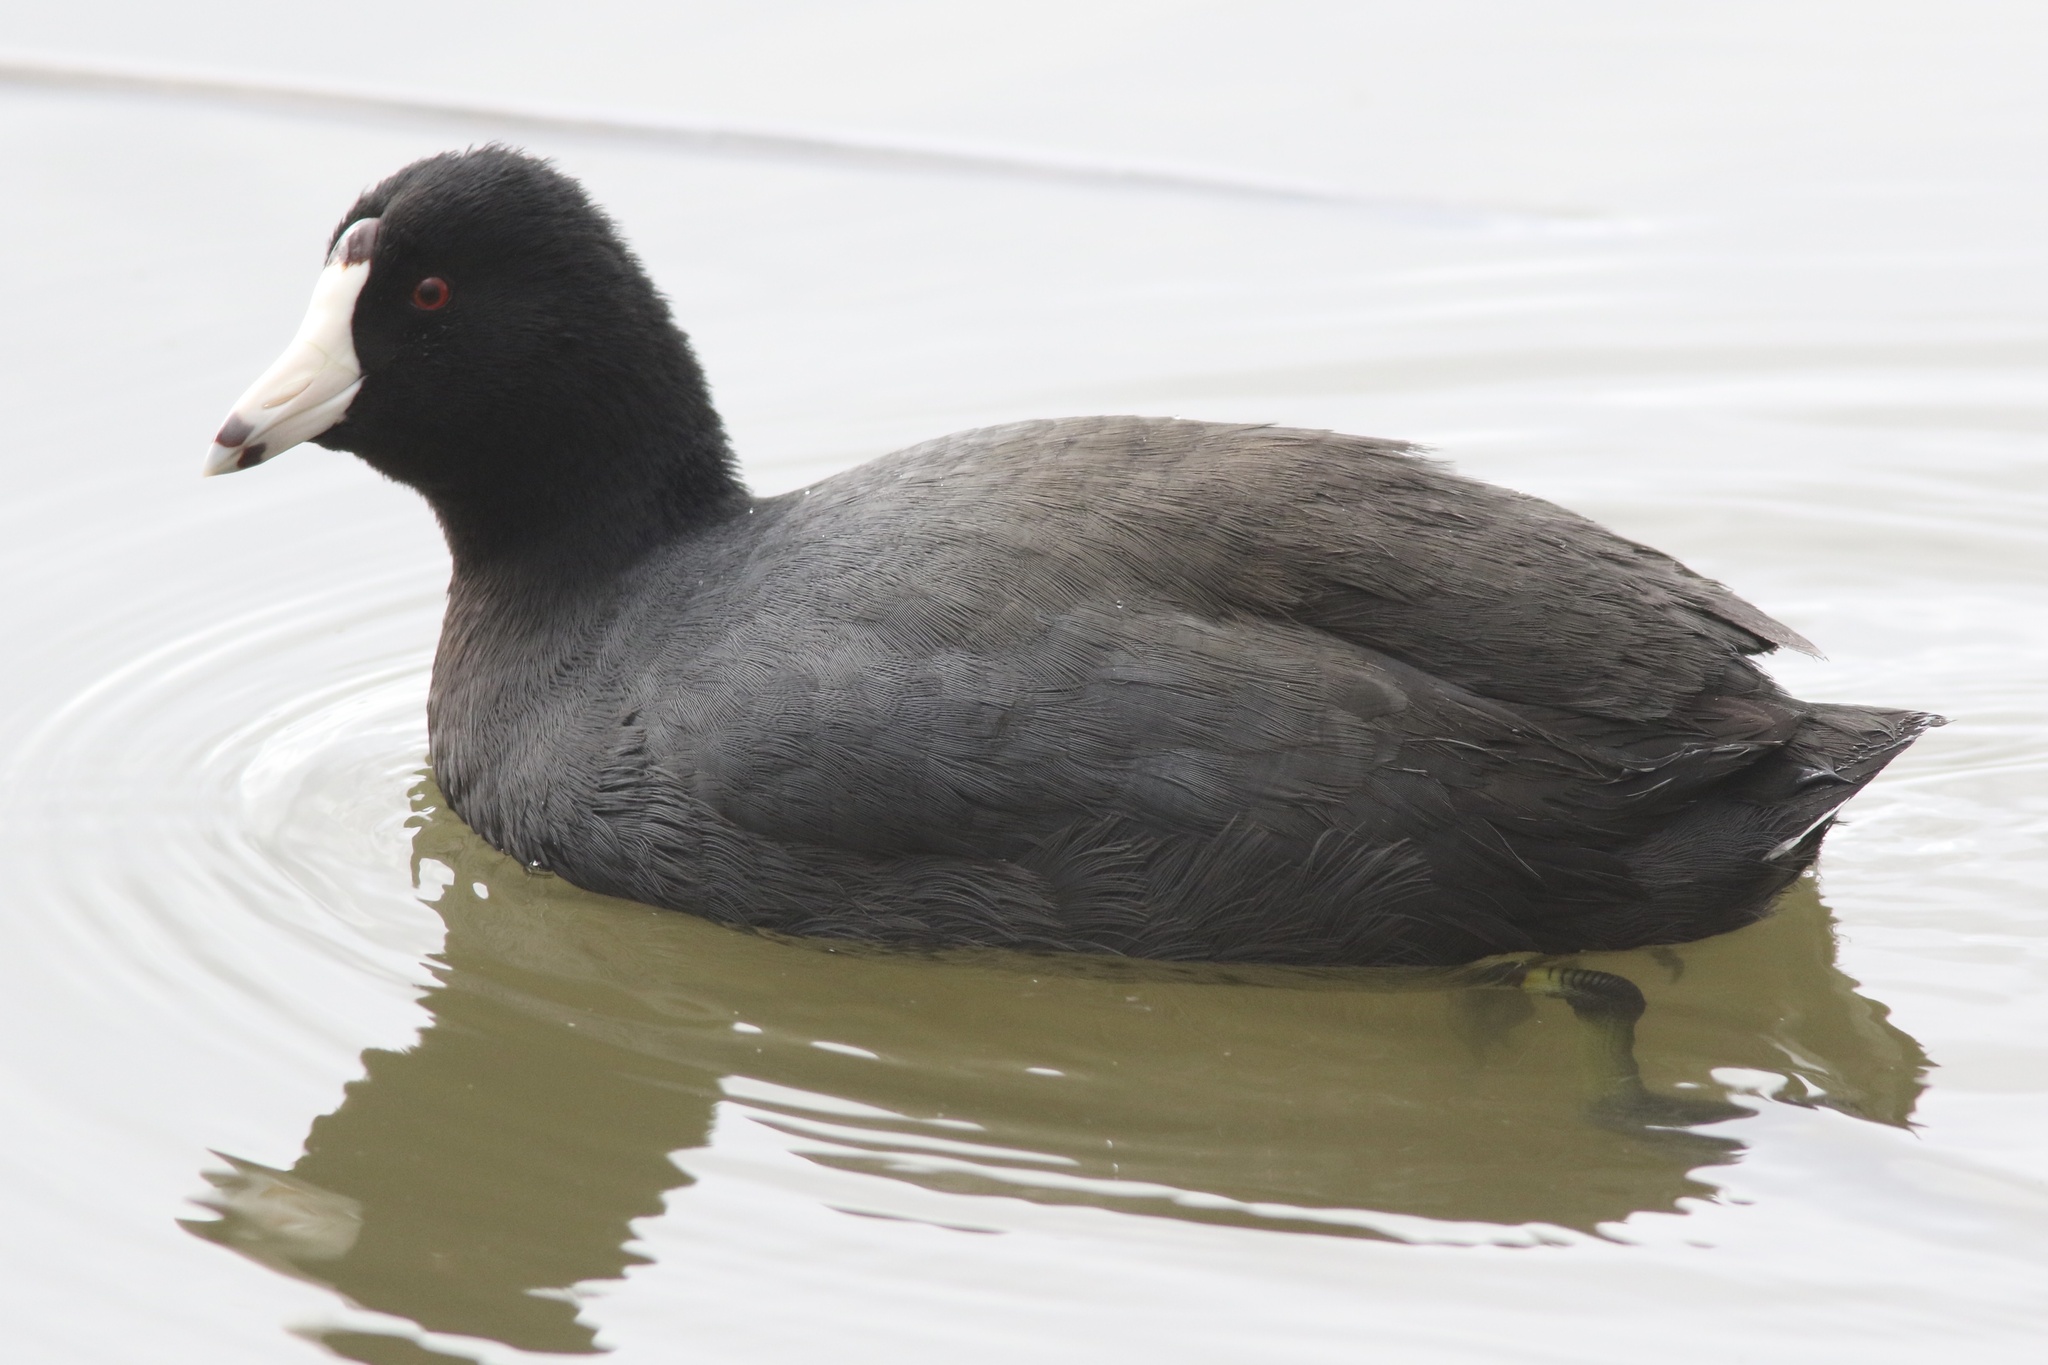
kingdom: Animalia
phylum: Chordata
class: Aves
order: Gruiformes
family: Rallidae
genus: Fulica
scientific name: Fulica americana
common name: American coot
